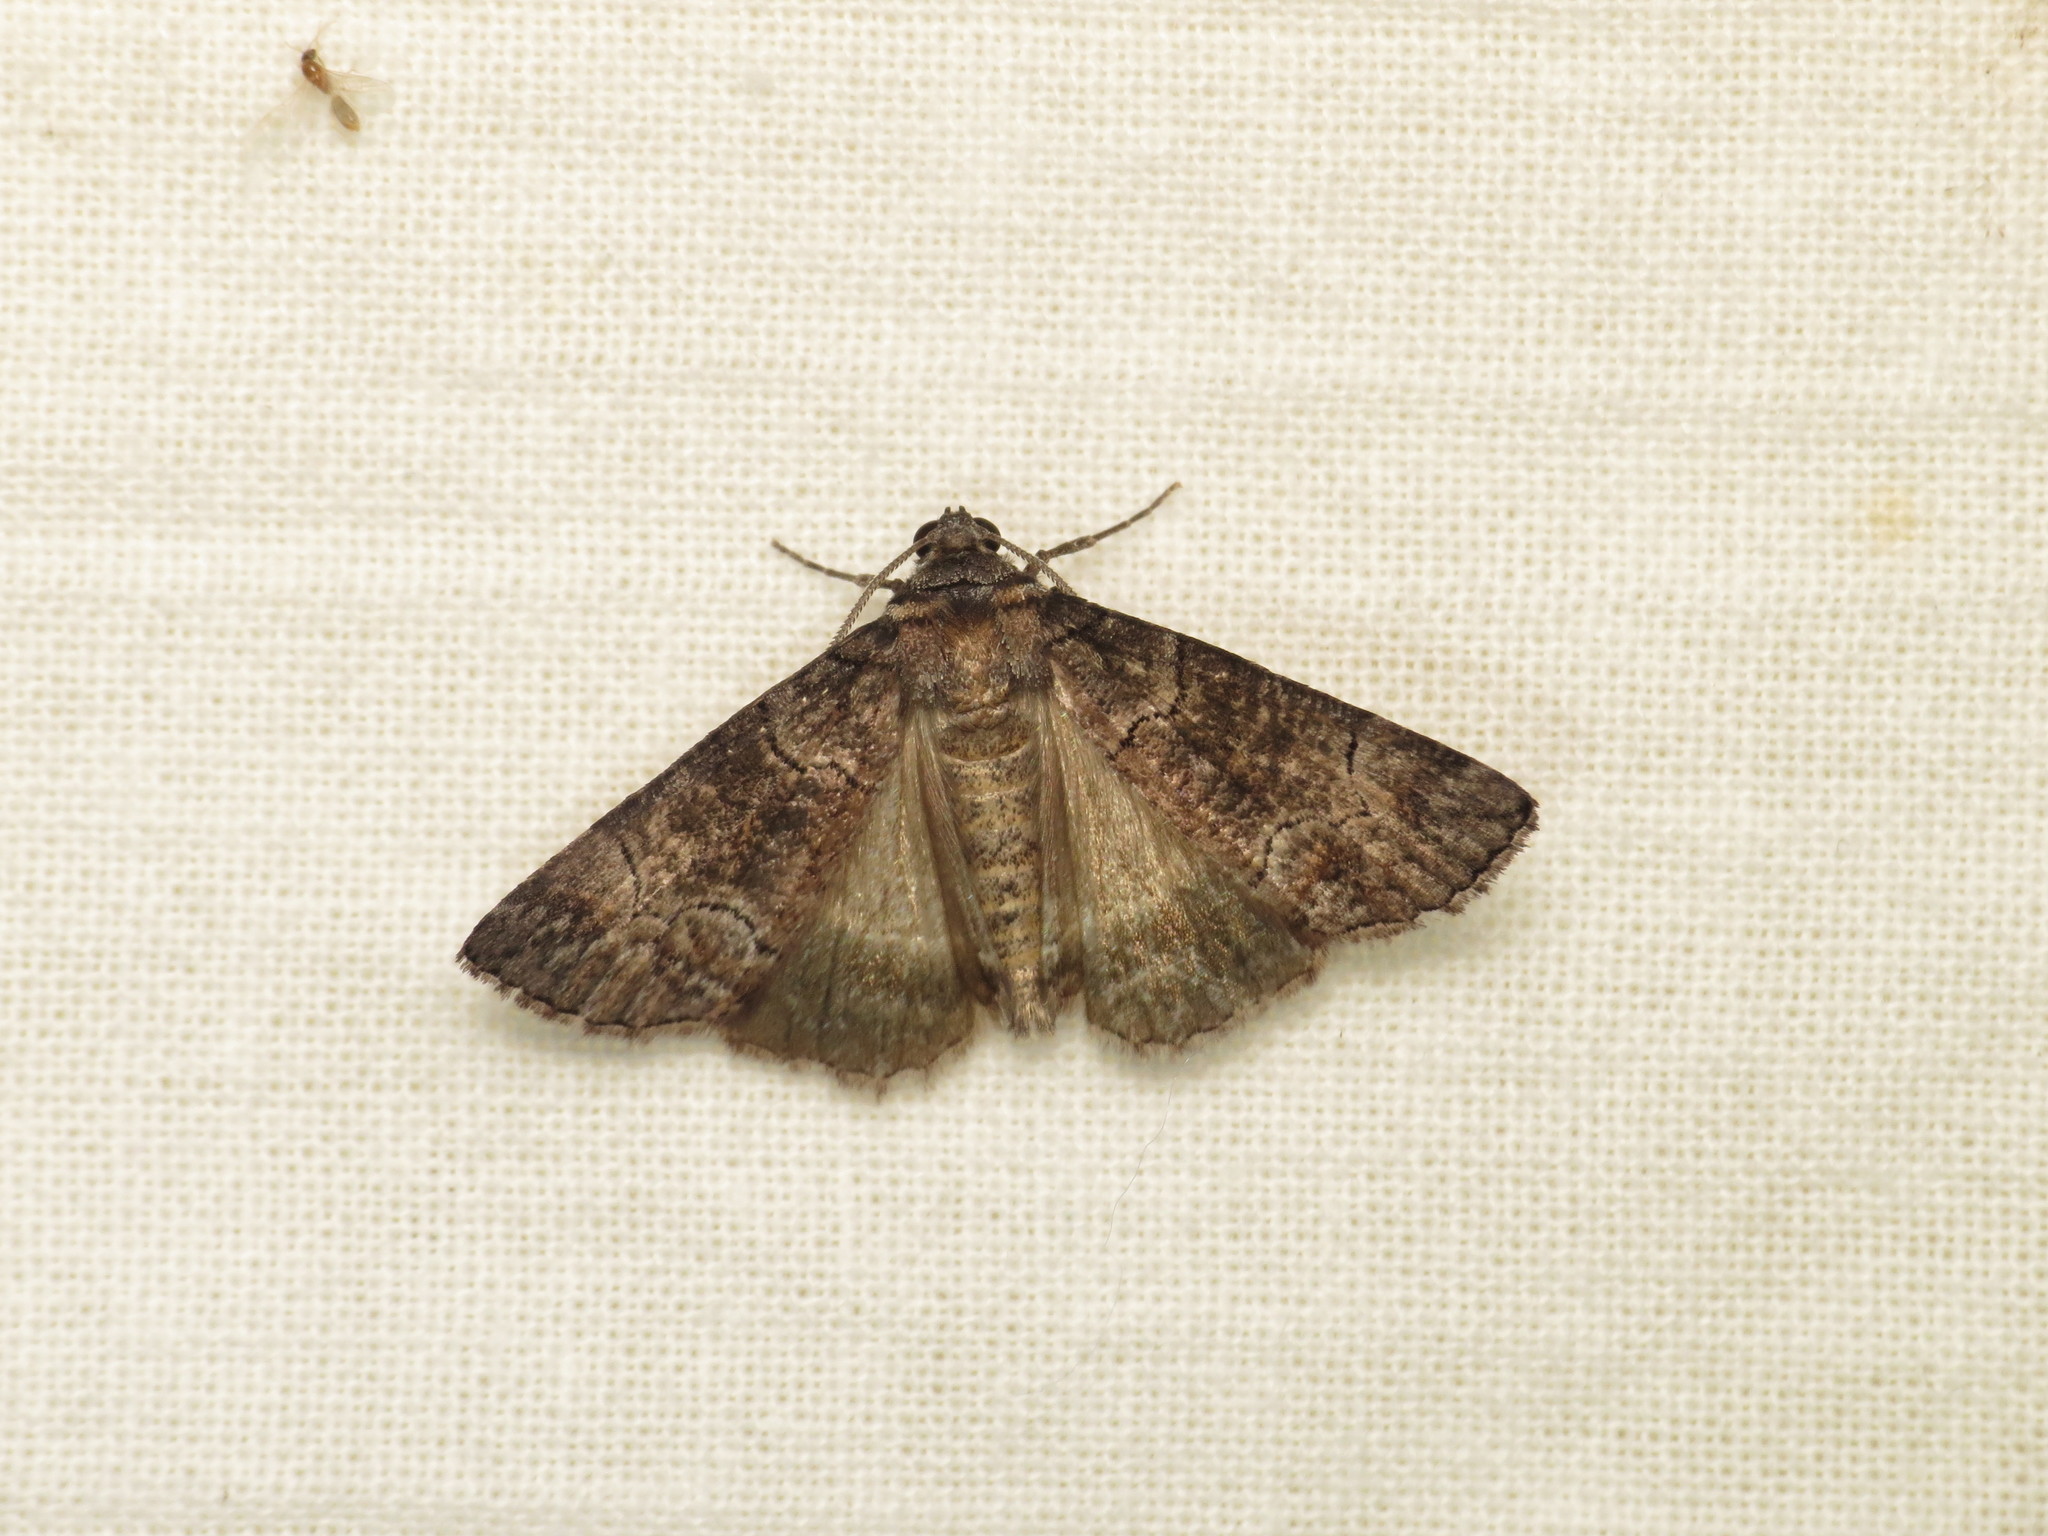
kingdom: Animalia
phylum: Arthropoda
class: Insecta
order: Lepidoptera
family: Geometridae
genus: Dysbatus
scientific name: Dysbatus singularis
